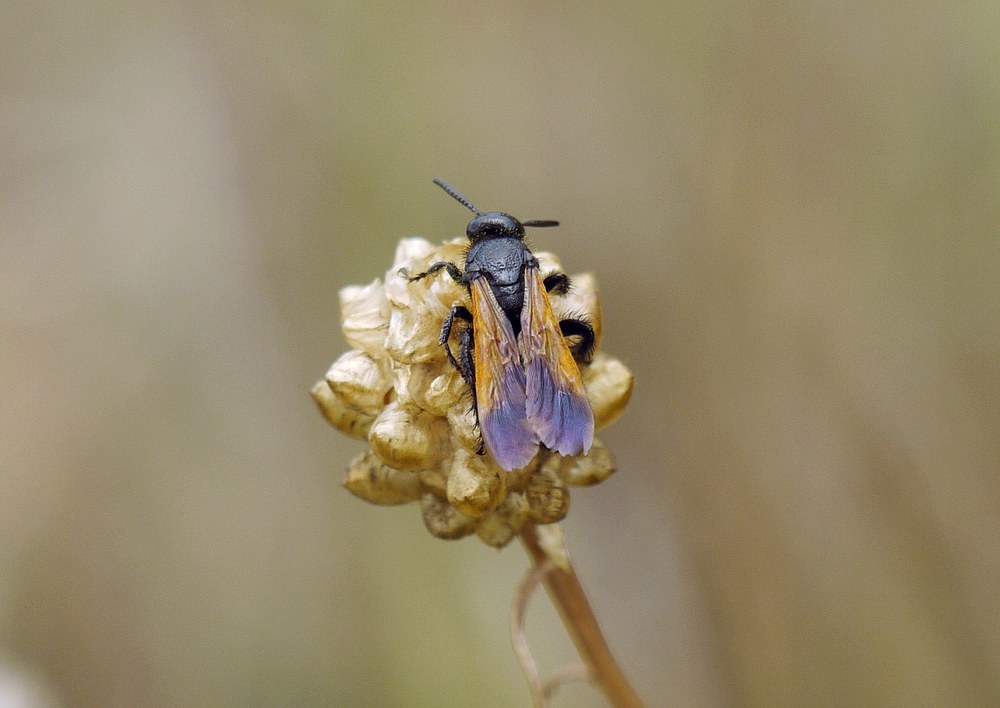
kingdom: Animalia
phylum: Arthropoda
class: Insecta
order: Hymenoptera
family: Vespidae
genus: Vespa
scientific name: Vespa sexmaculata
